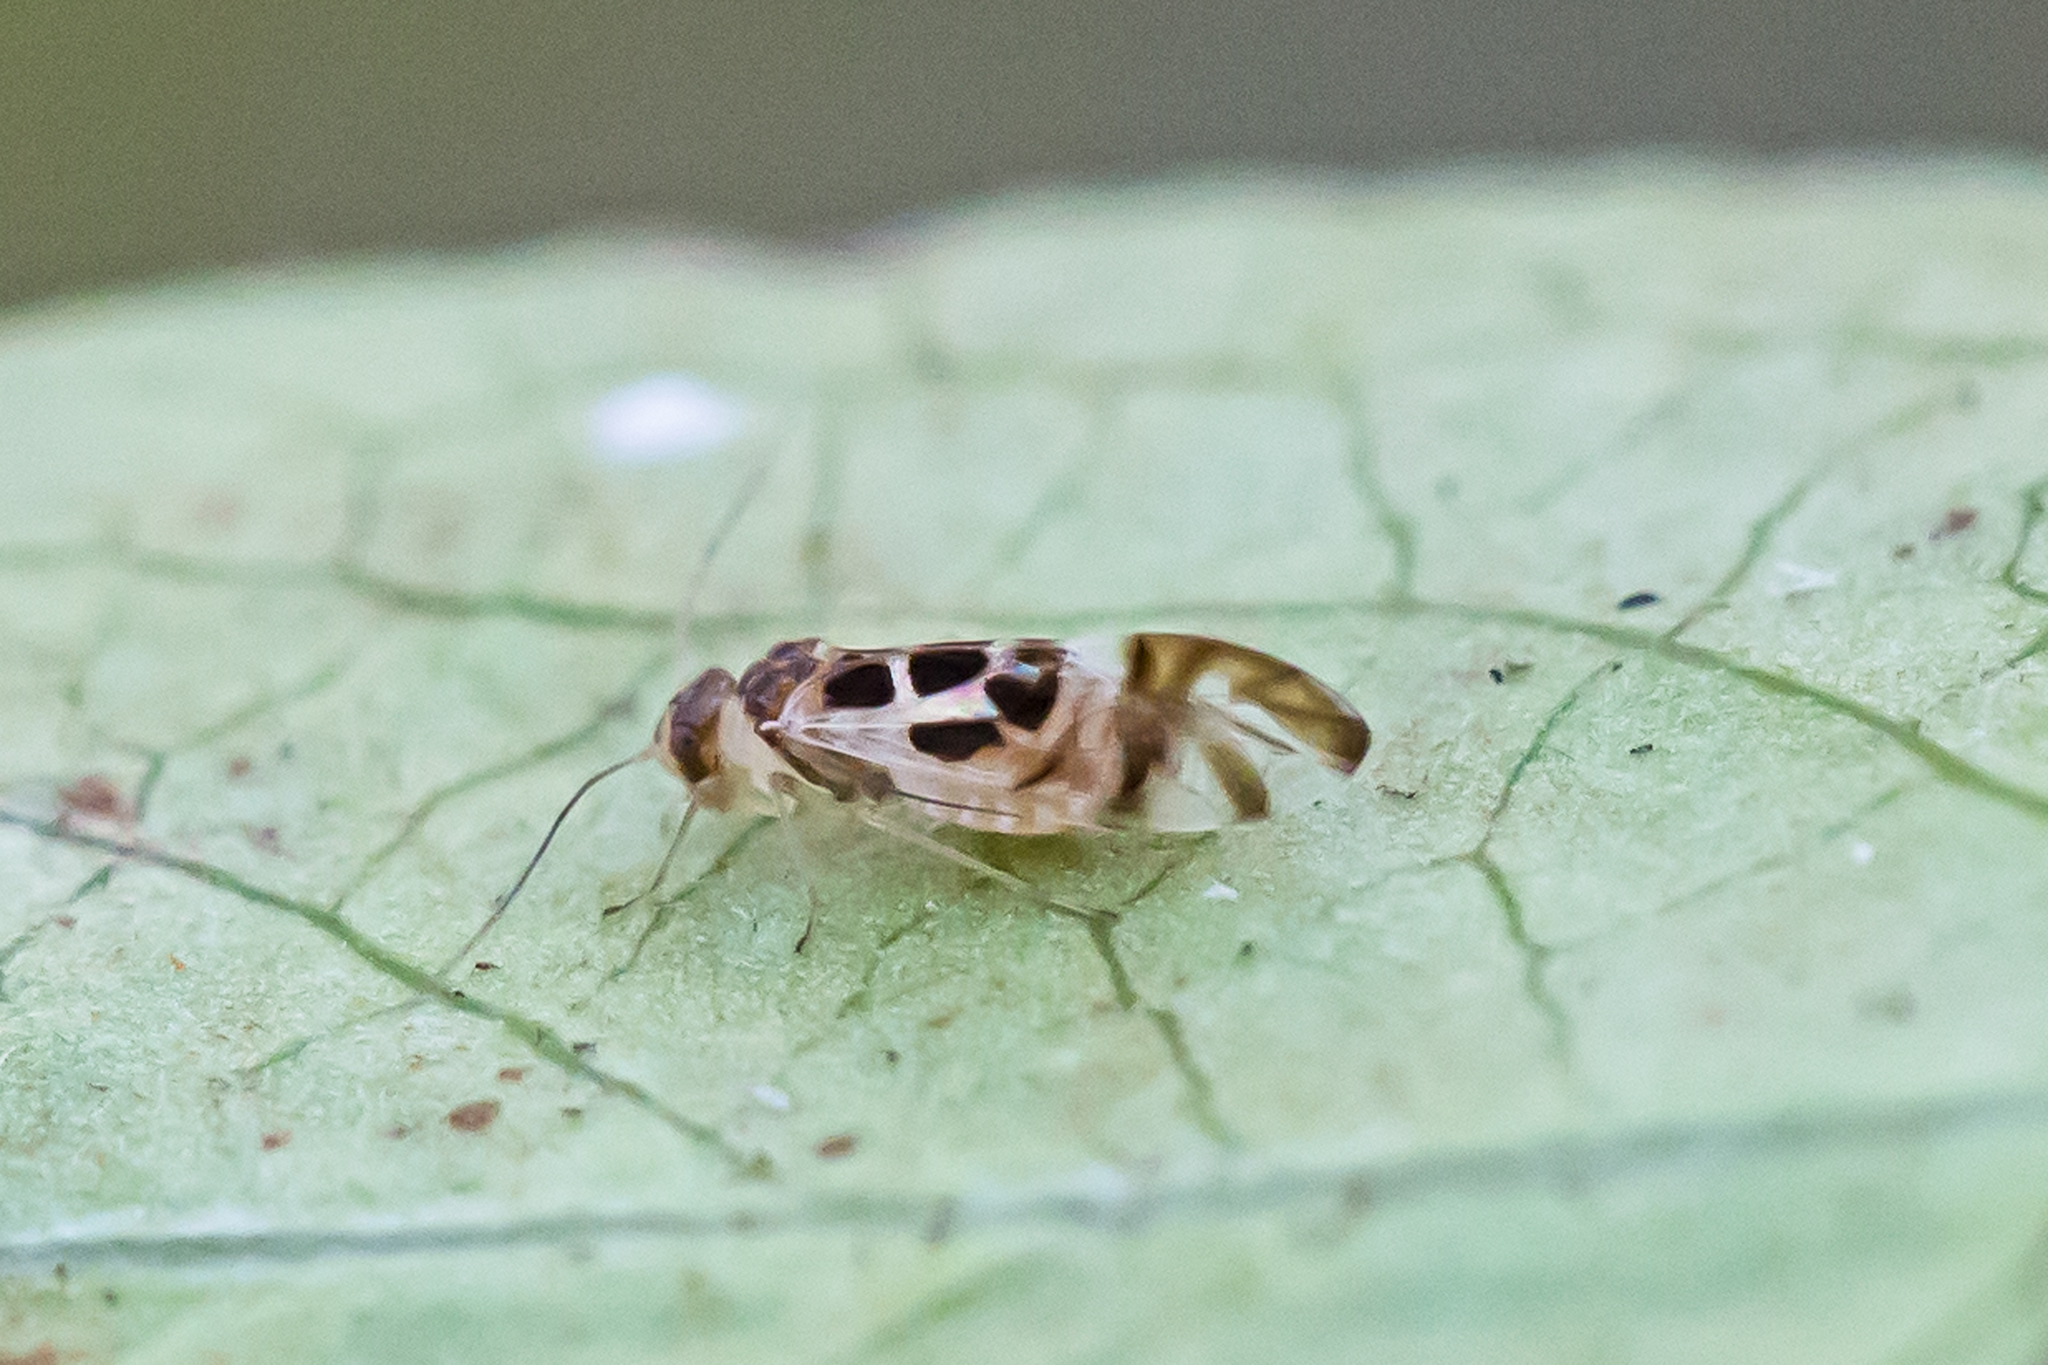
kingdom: Animalia
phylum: Arthropoda
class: Insecta
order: Psocodea
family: Stenopsocidae
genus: Graphopsocus
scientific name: Graphopsocus cruciatus
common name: Lizard bark louse
